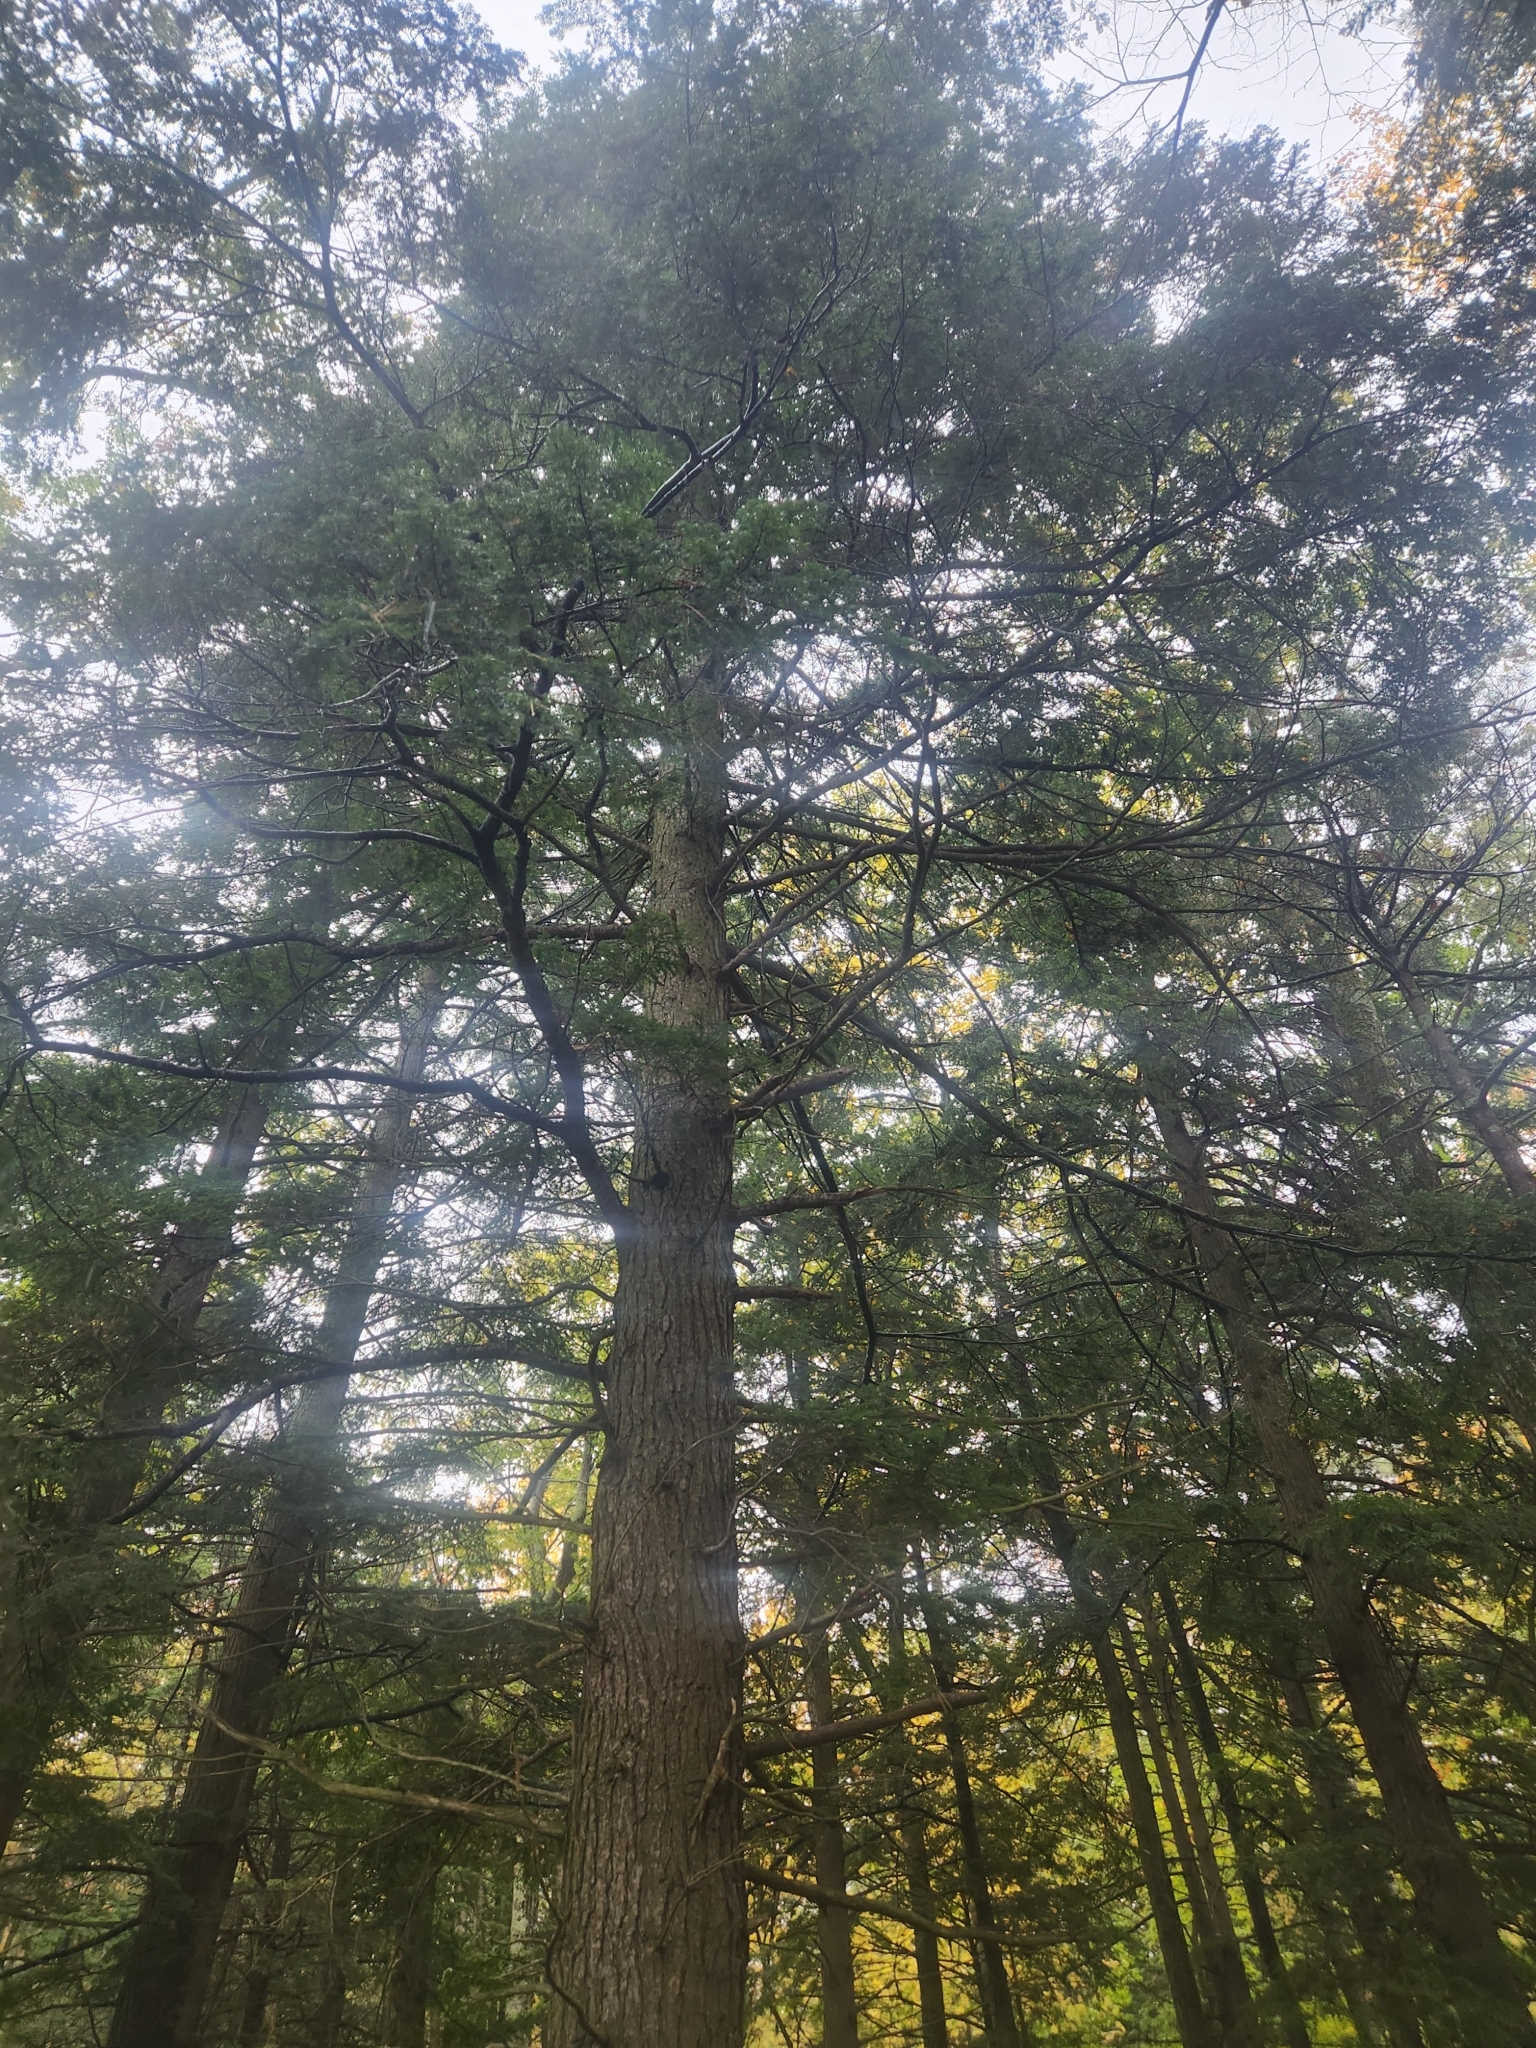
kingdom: Plantae
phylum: Tracheophyta
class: Pinopsida
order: Pinales
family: Pinaceae
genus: Tsuga
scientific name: Tsuga canadensis
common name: Eastern hemlock
